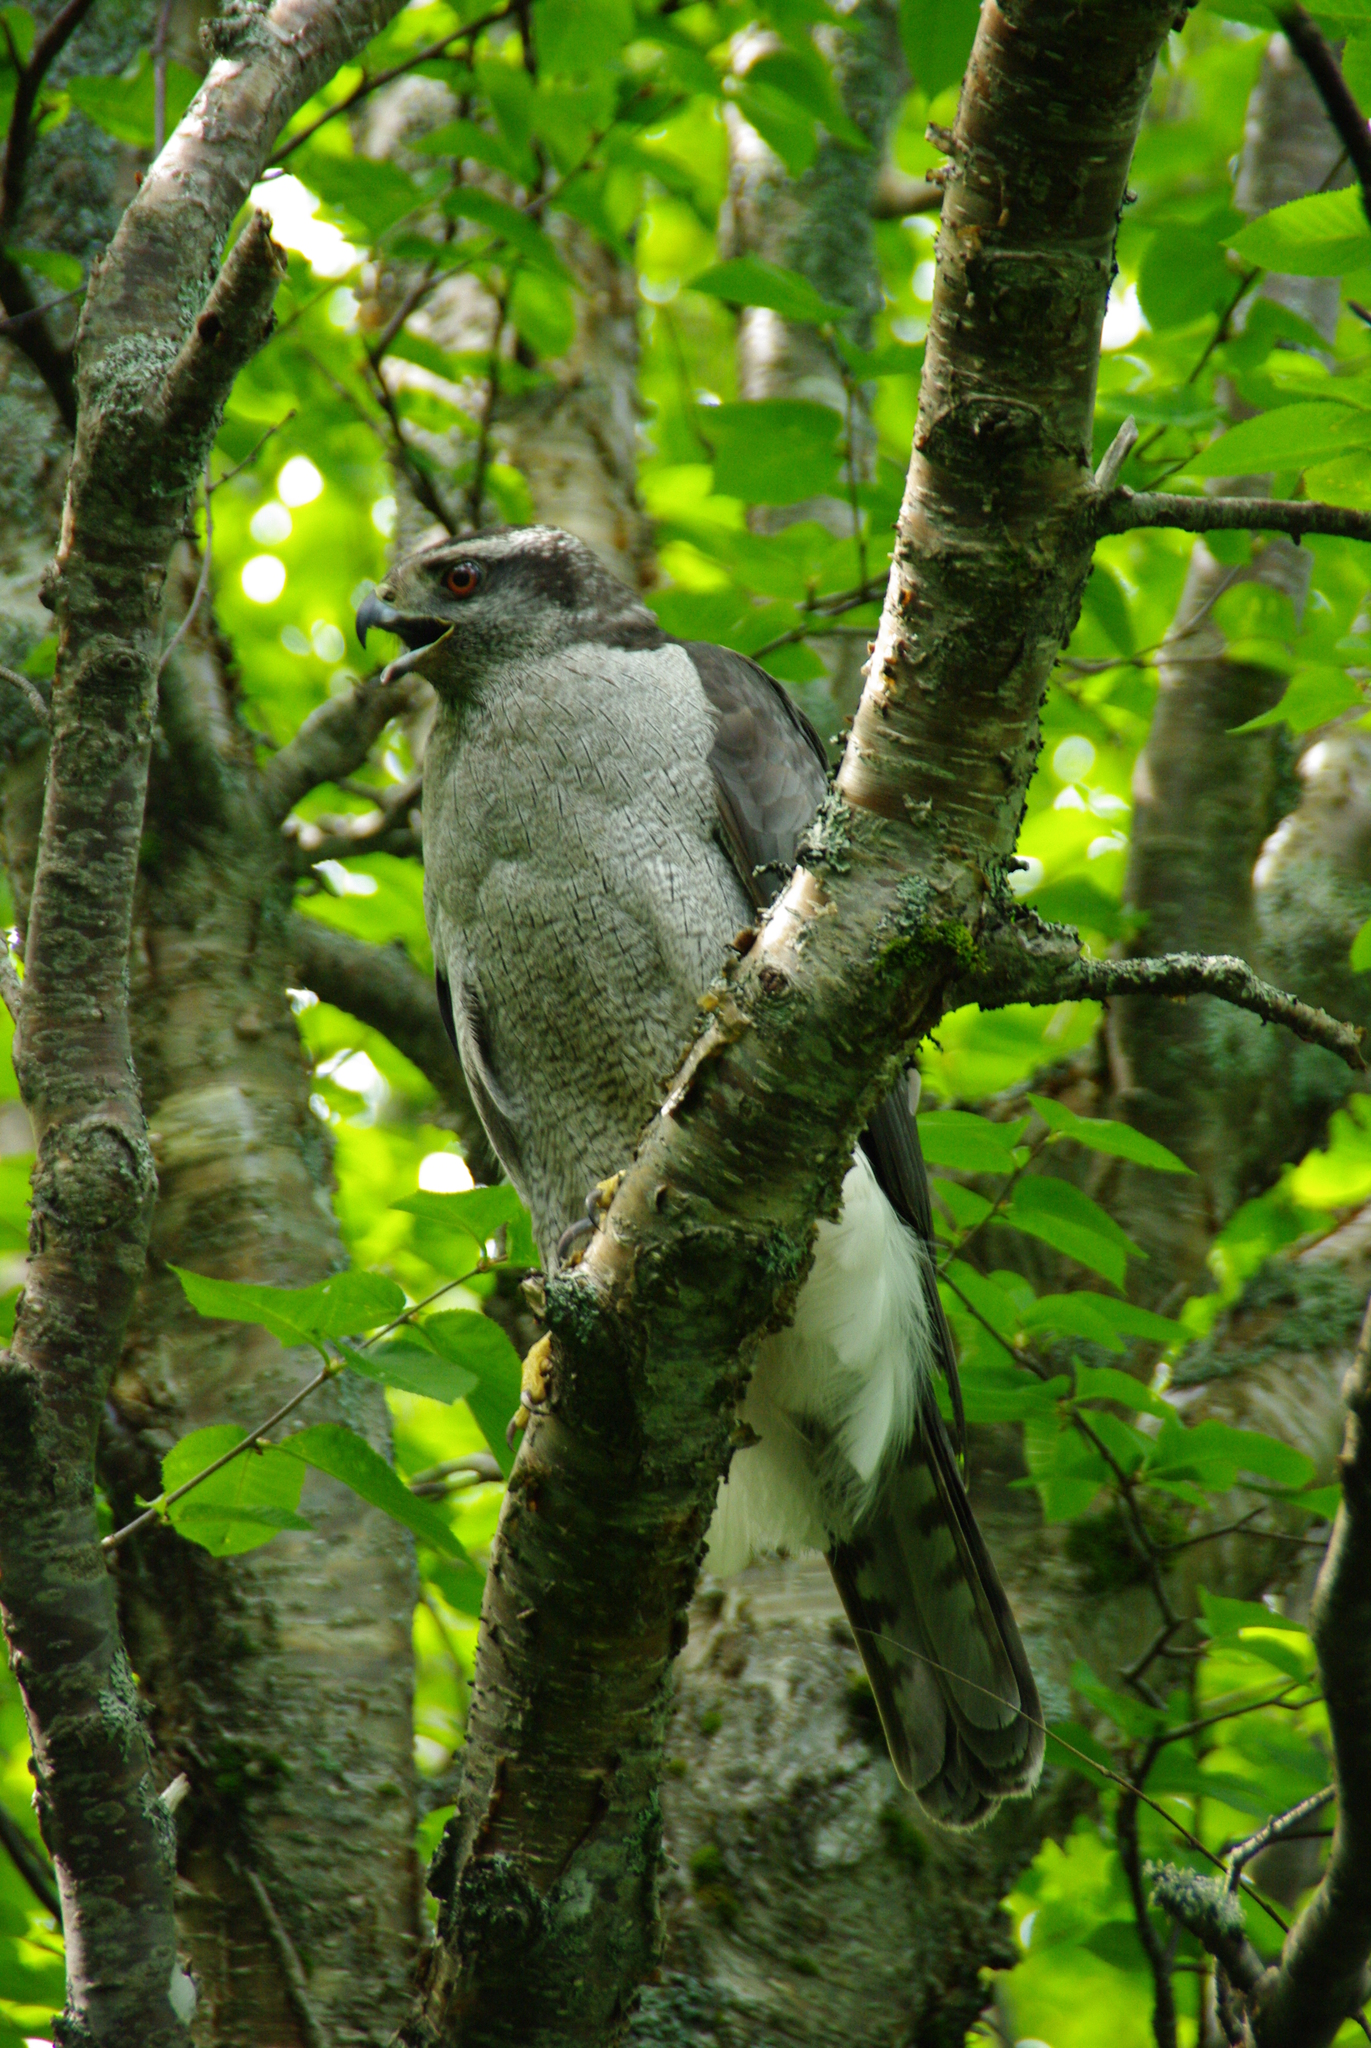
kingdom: Animalia
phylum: Chordata
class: Aves
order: Accipitriformes
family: Accipitridae
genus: Accipiter
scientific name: Accipiter gentilis
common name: Northern goshawk
